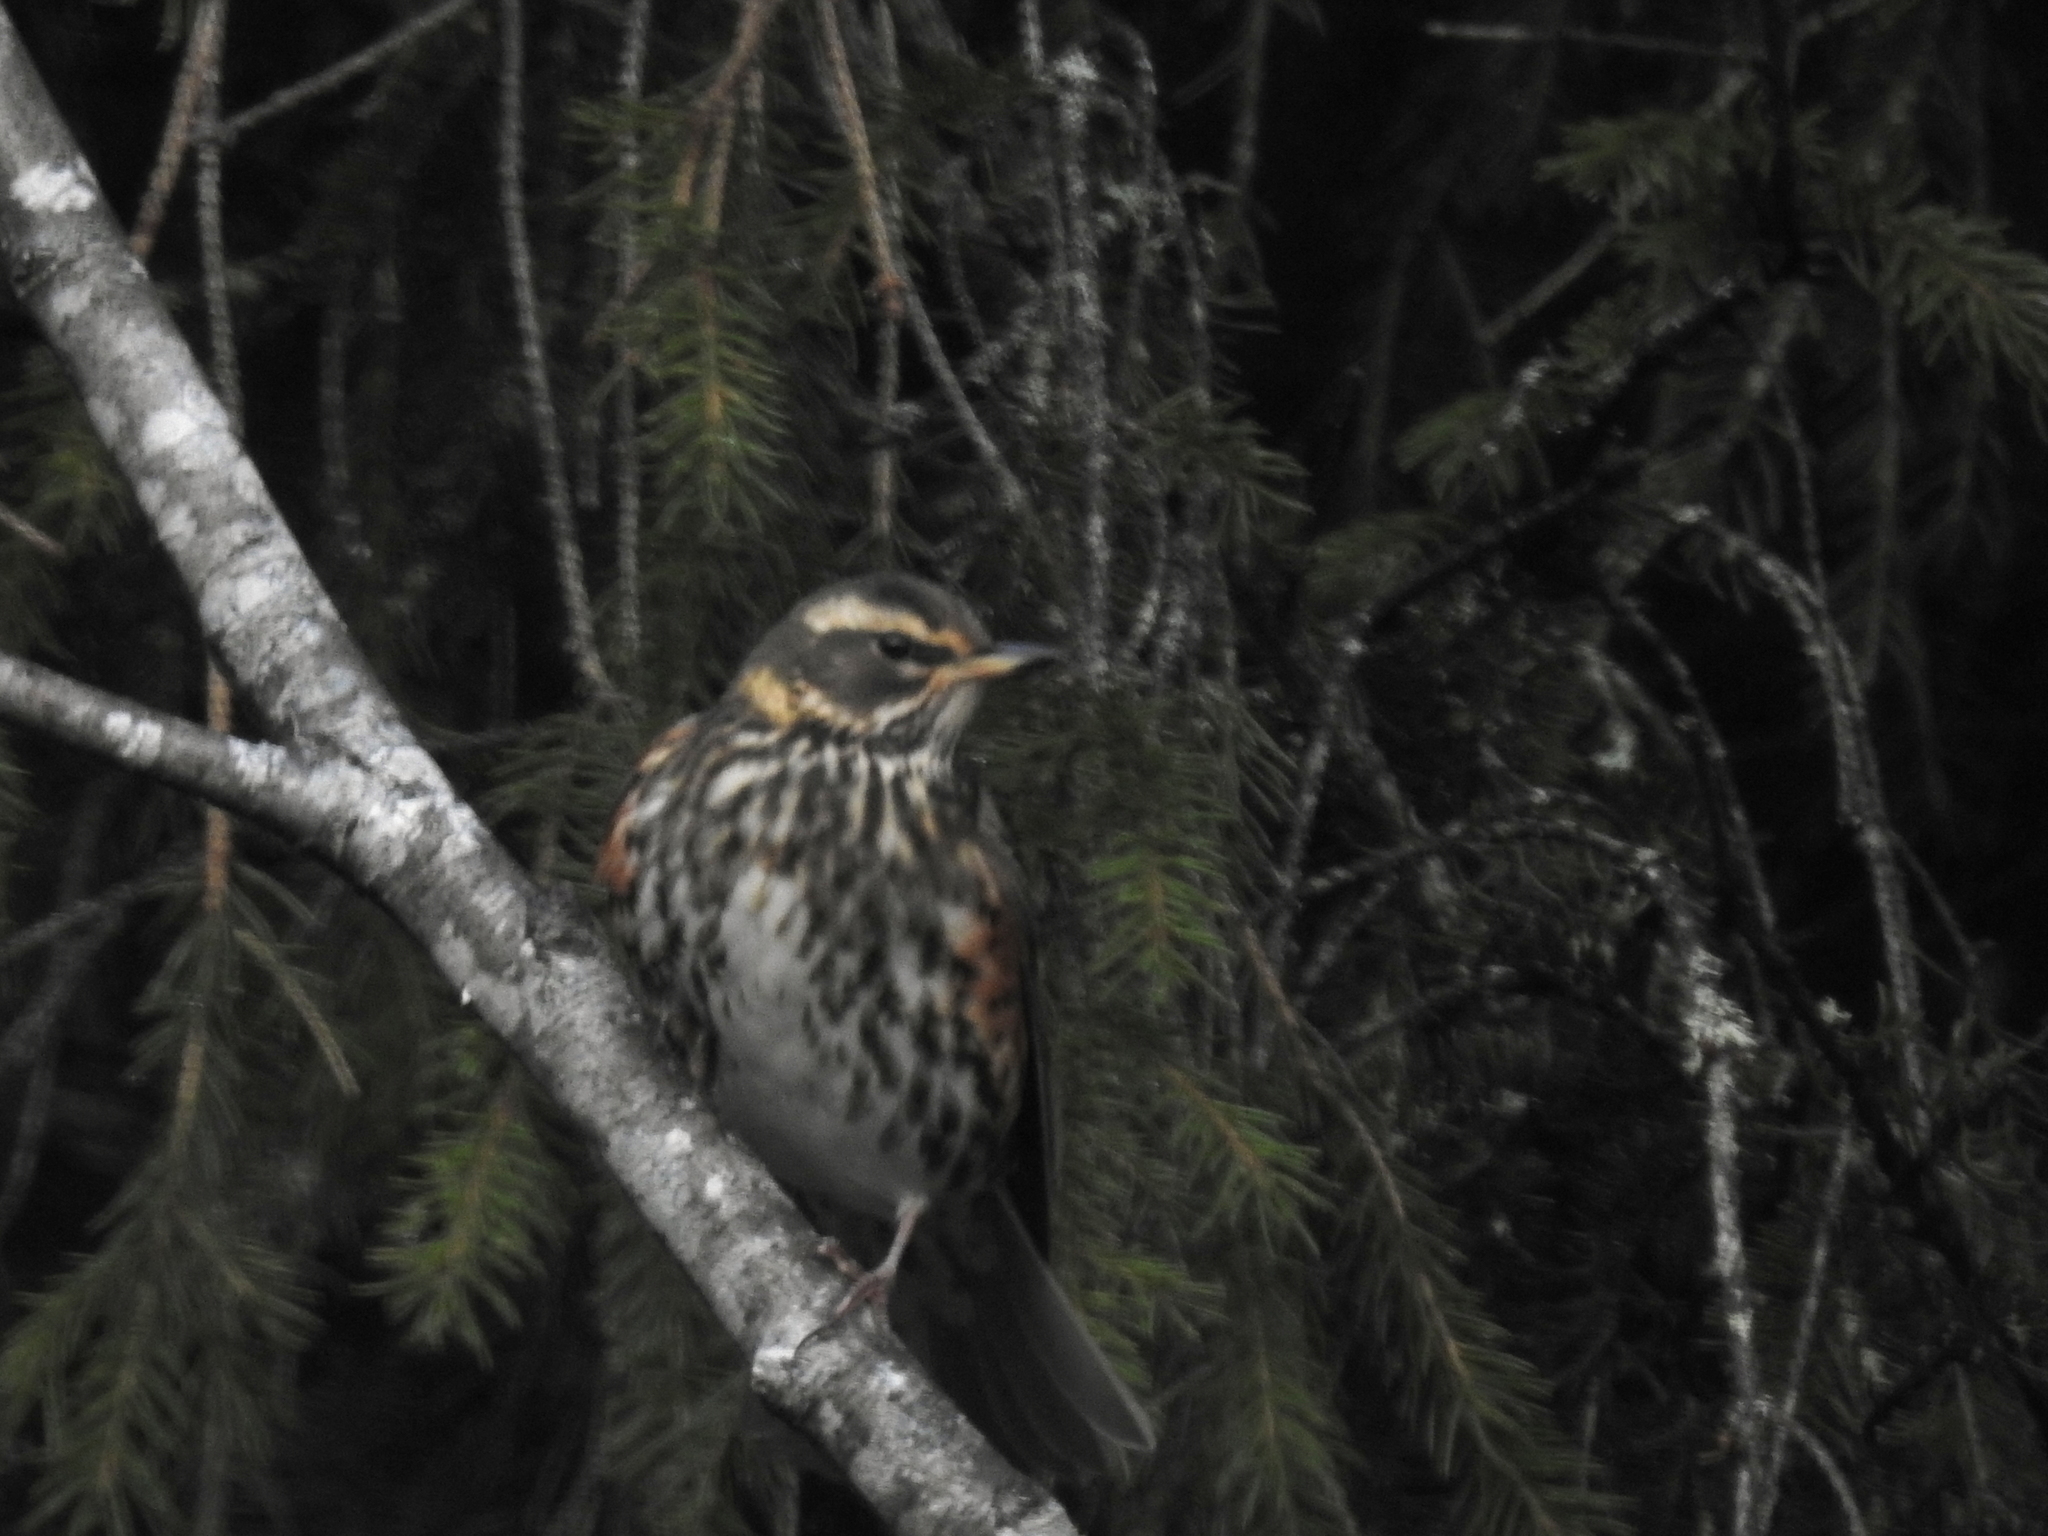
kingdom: Animalia
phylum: Chordata
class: Aves
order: Passeriformes
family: Turdidae
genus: Turdus
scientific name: Turdus iliacus
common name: Redwing
